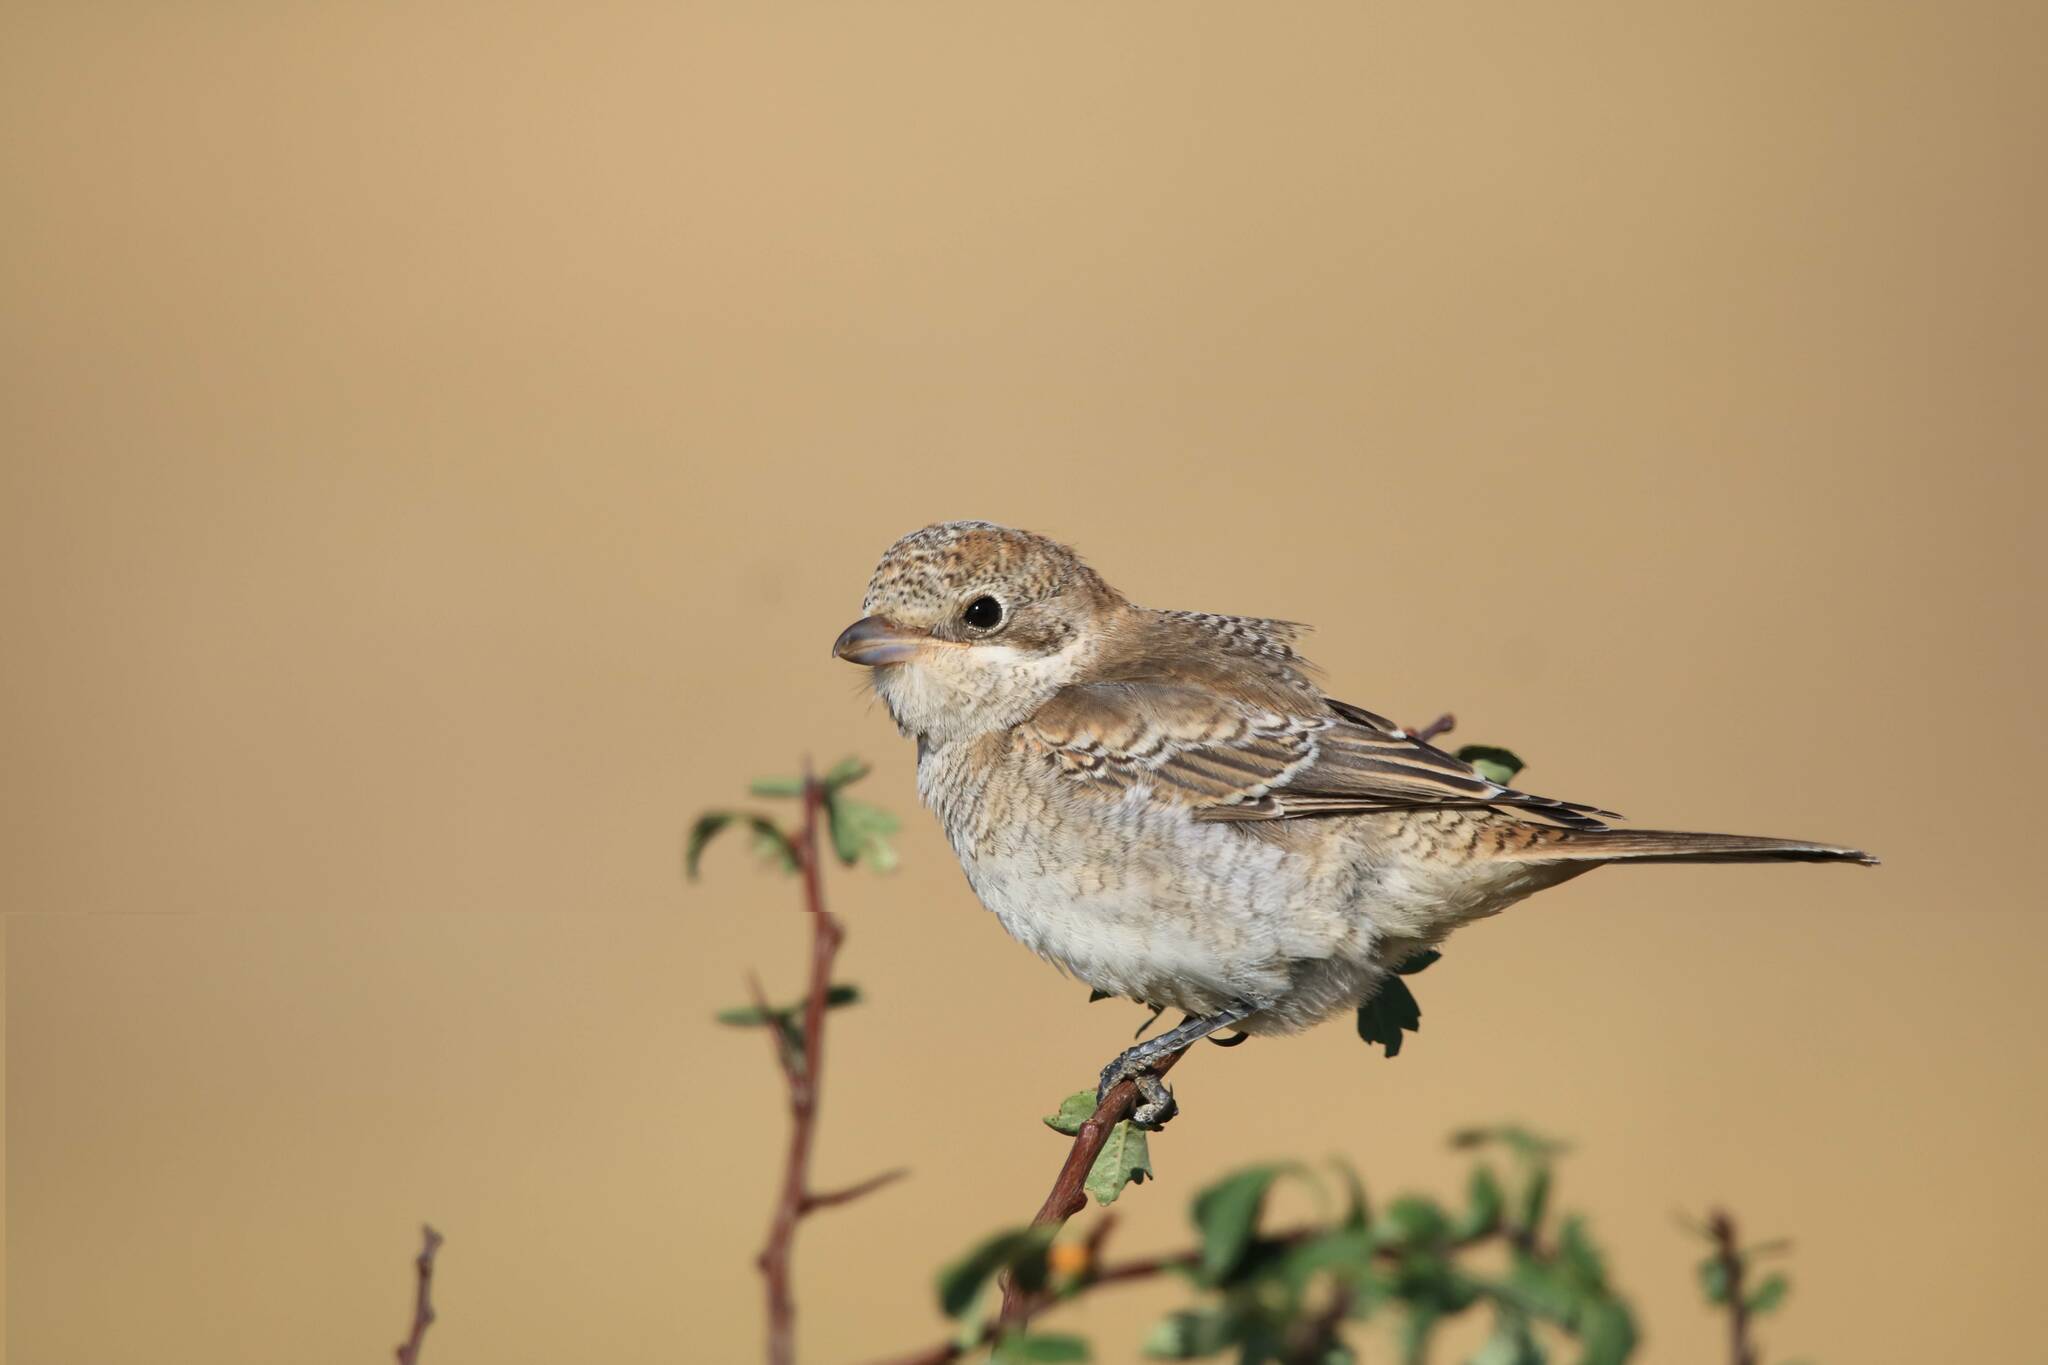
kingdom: Animalia
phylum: Chordata
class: Aves
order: Passeriformes
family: Laniidae
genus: Lanius
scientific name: Lanius senator
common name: Woodchat shrike
